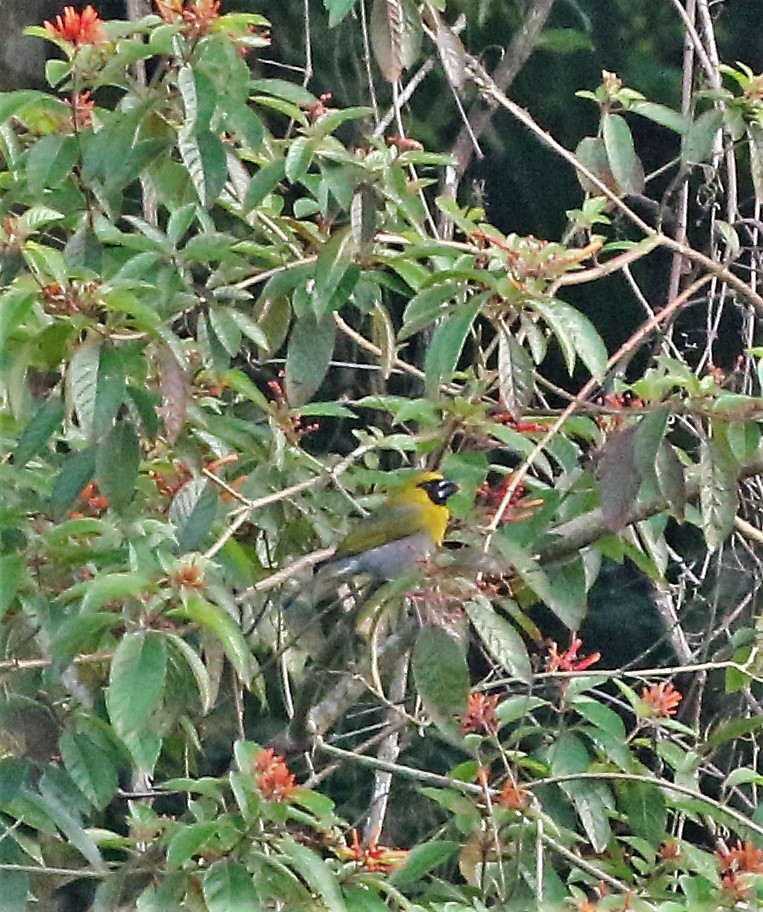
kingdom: Animalia
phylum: Chordata
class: Aves
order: Passeriformes
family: Cardinalidae
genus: Caryothraustes
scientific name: Caryothraustes poliogaster
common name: Black-faced grosbeak
